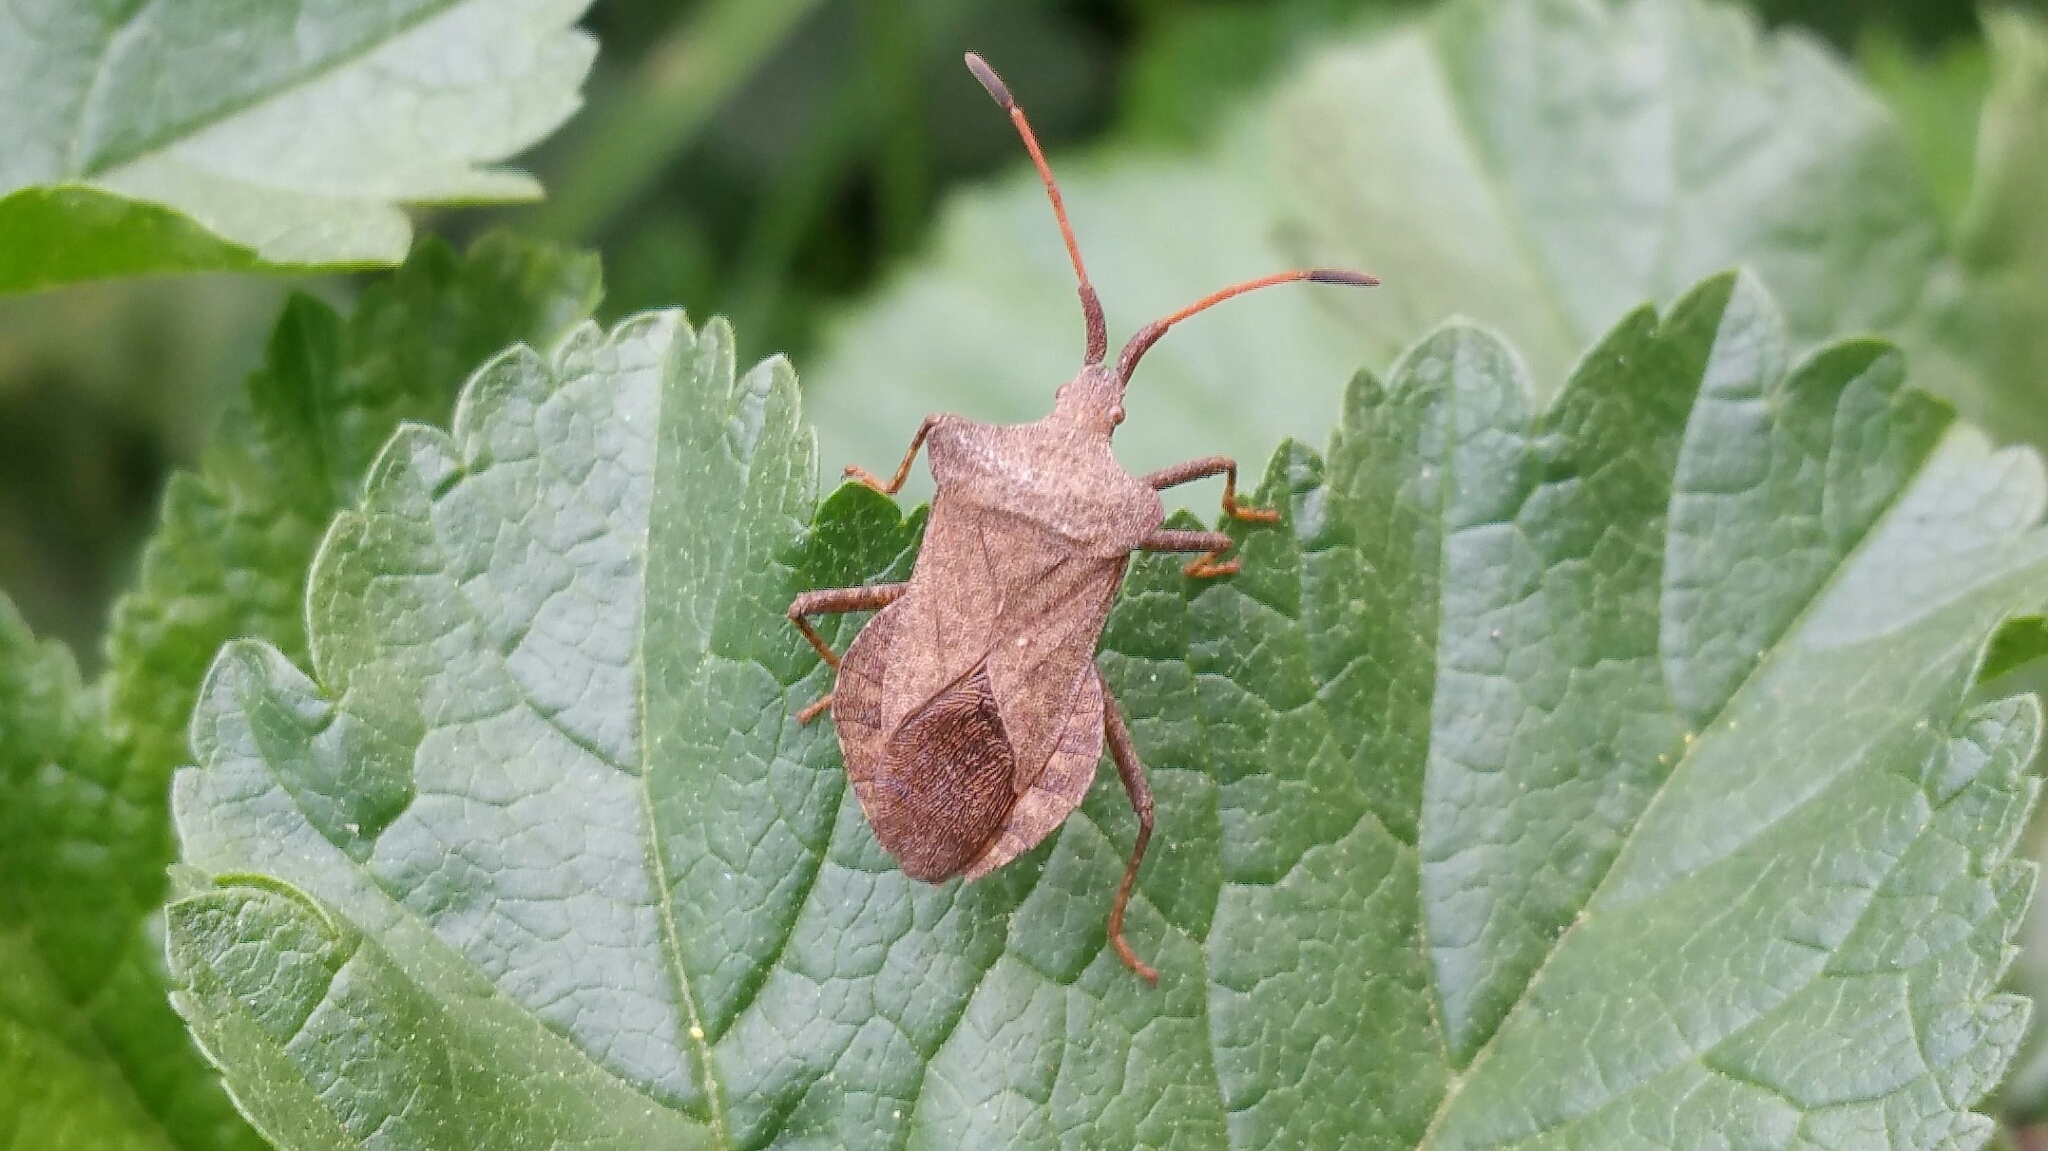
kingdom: Animalia
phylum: Arthropoda
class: Insecta
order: Hemiptera
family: Coreidae
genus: Coreus
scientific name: Coreus marginatus
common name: Dock bug
